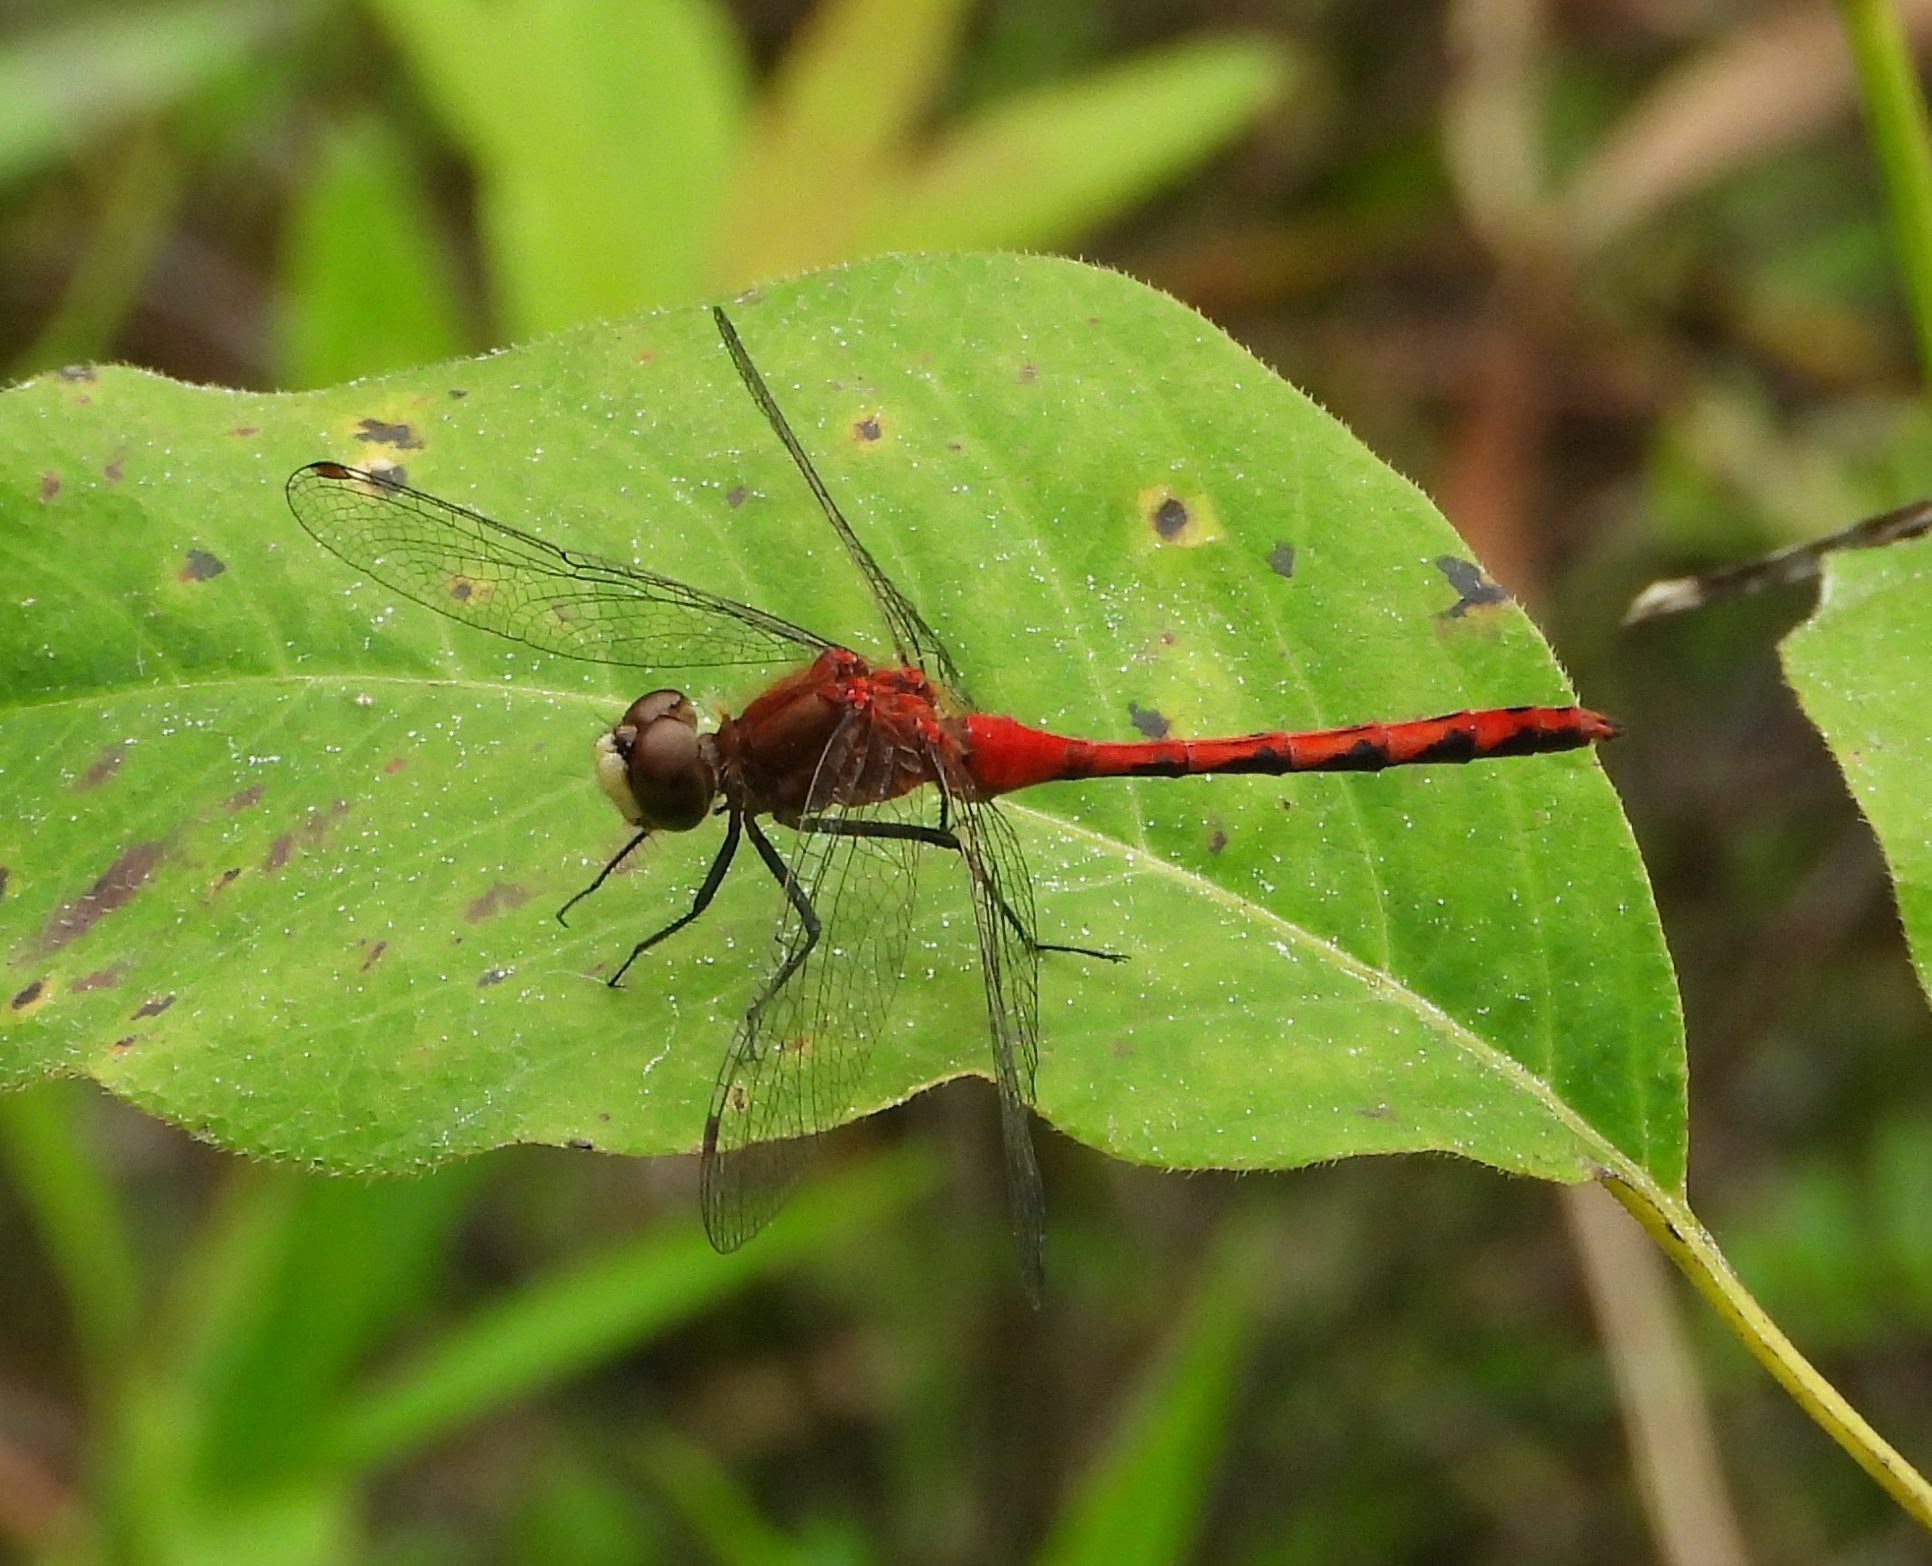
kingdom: Animalia
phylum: Arthropoda
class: Insecta
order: Odonata
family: Libellulidae
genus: Sympetrum
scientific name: Sympetrum obtrusum
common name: White-faced meadowhawk
